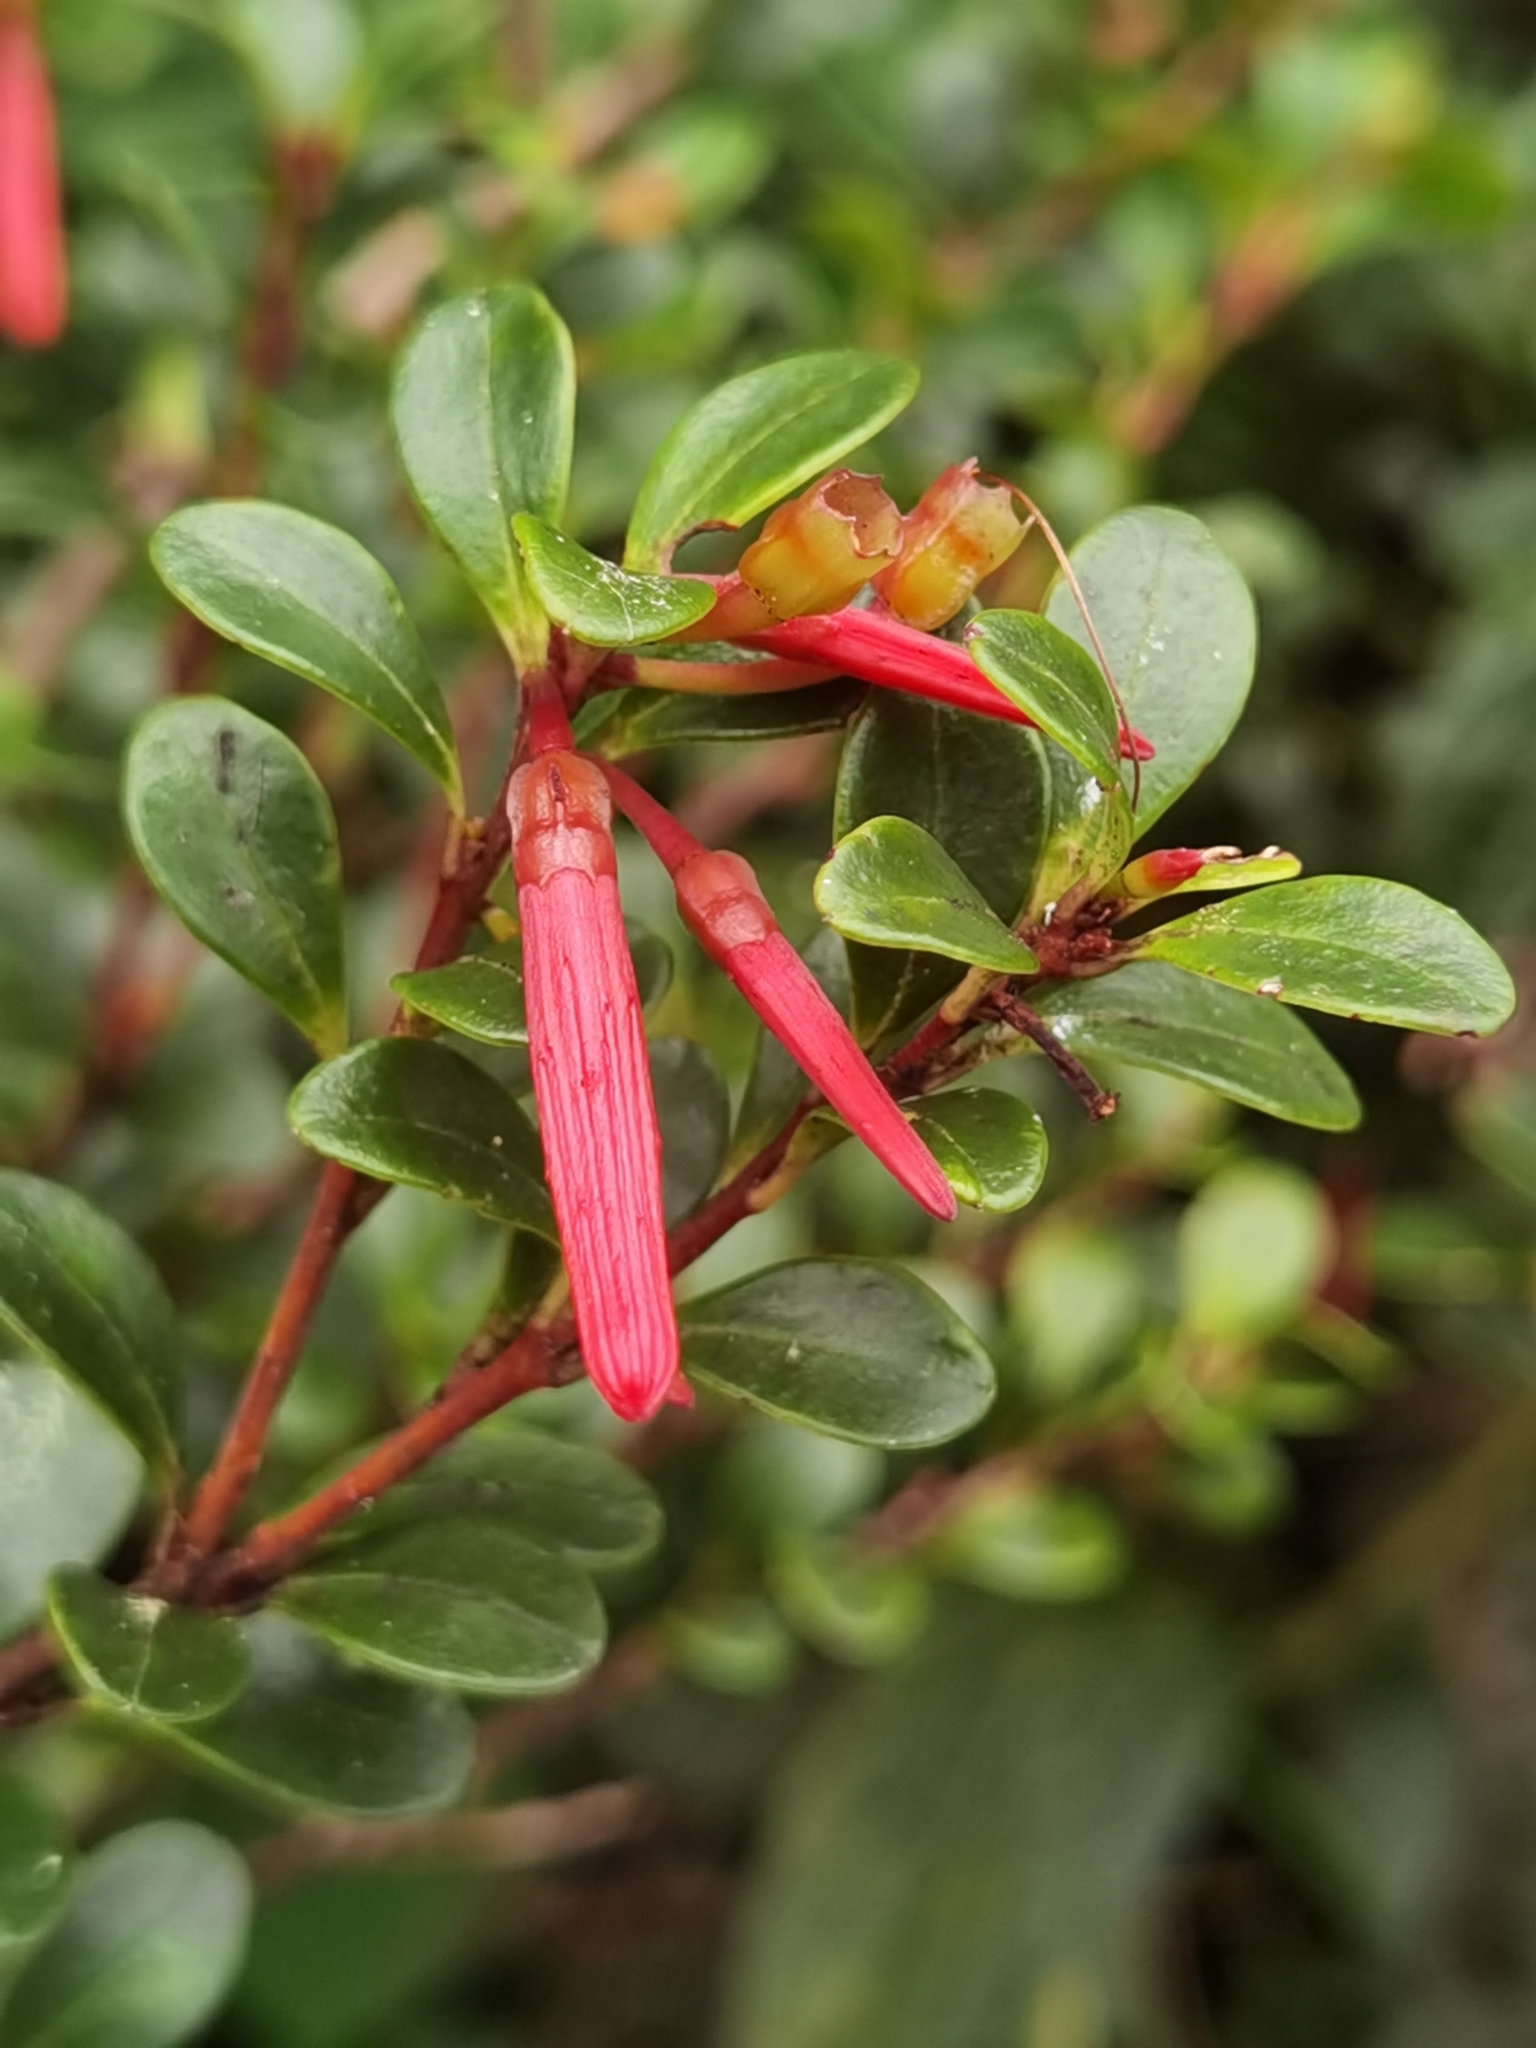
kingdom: Plantae
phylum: Tracheophyta
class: Magnoliopsida
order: Ericales
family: Ericaceae
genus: Gonocalyx
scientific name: Gonocalyx pterocarpus
